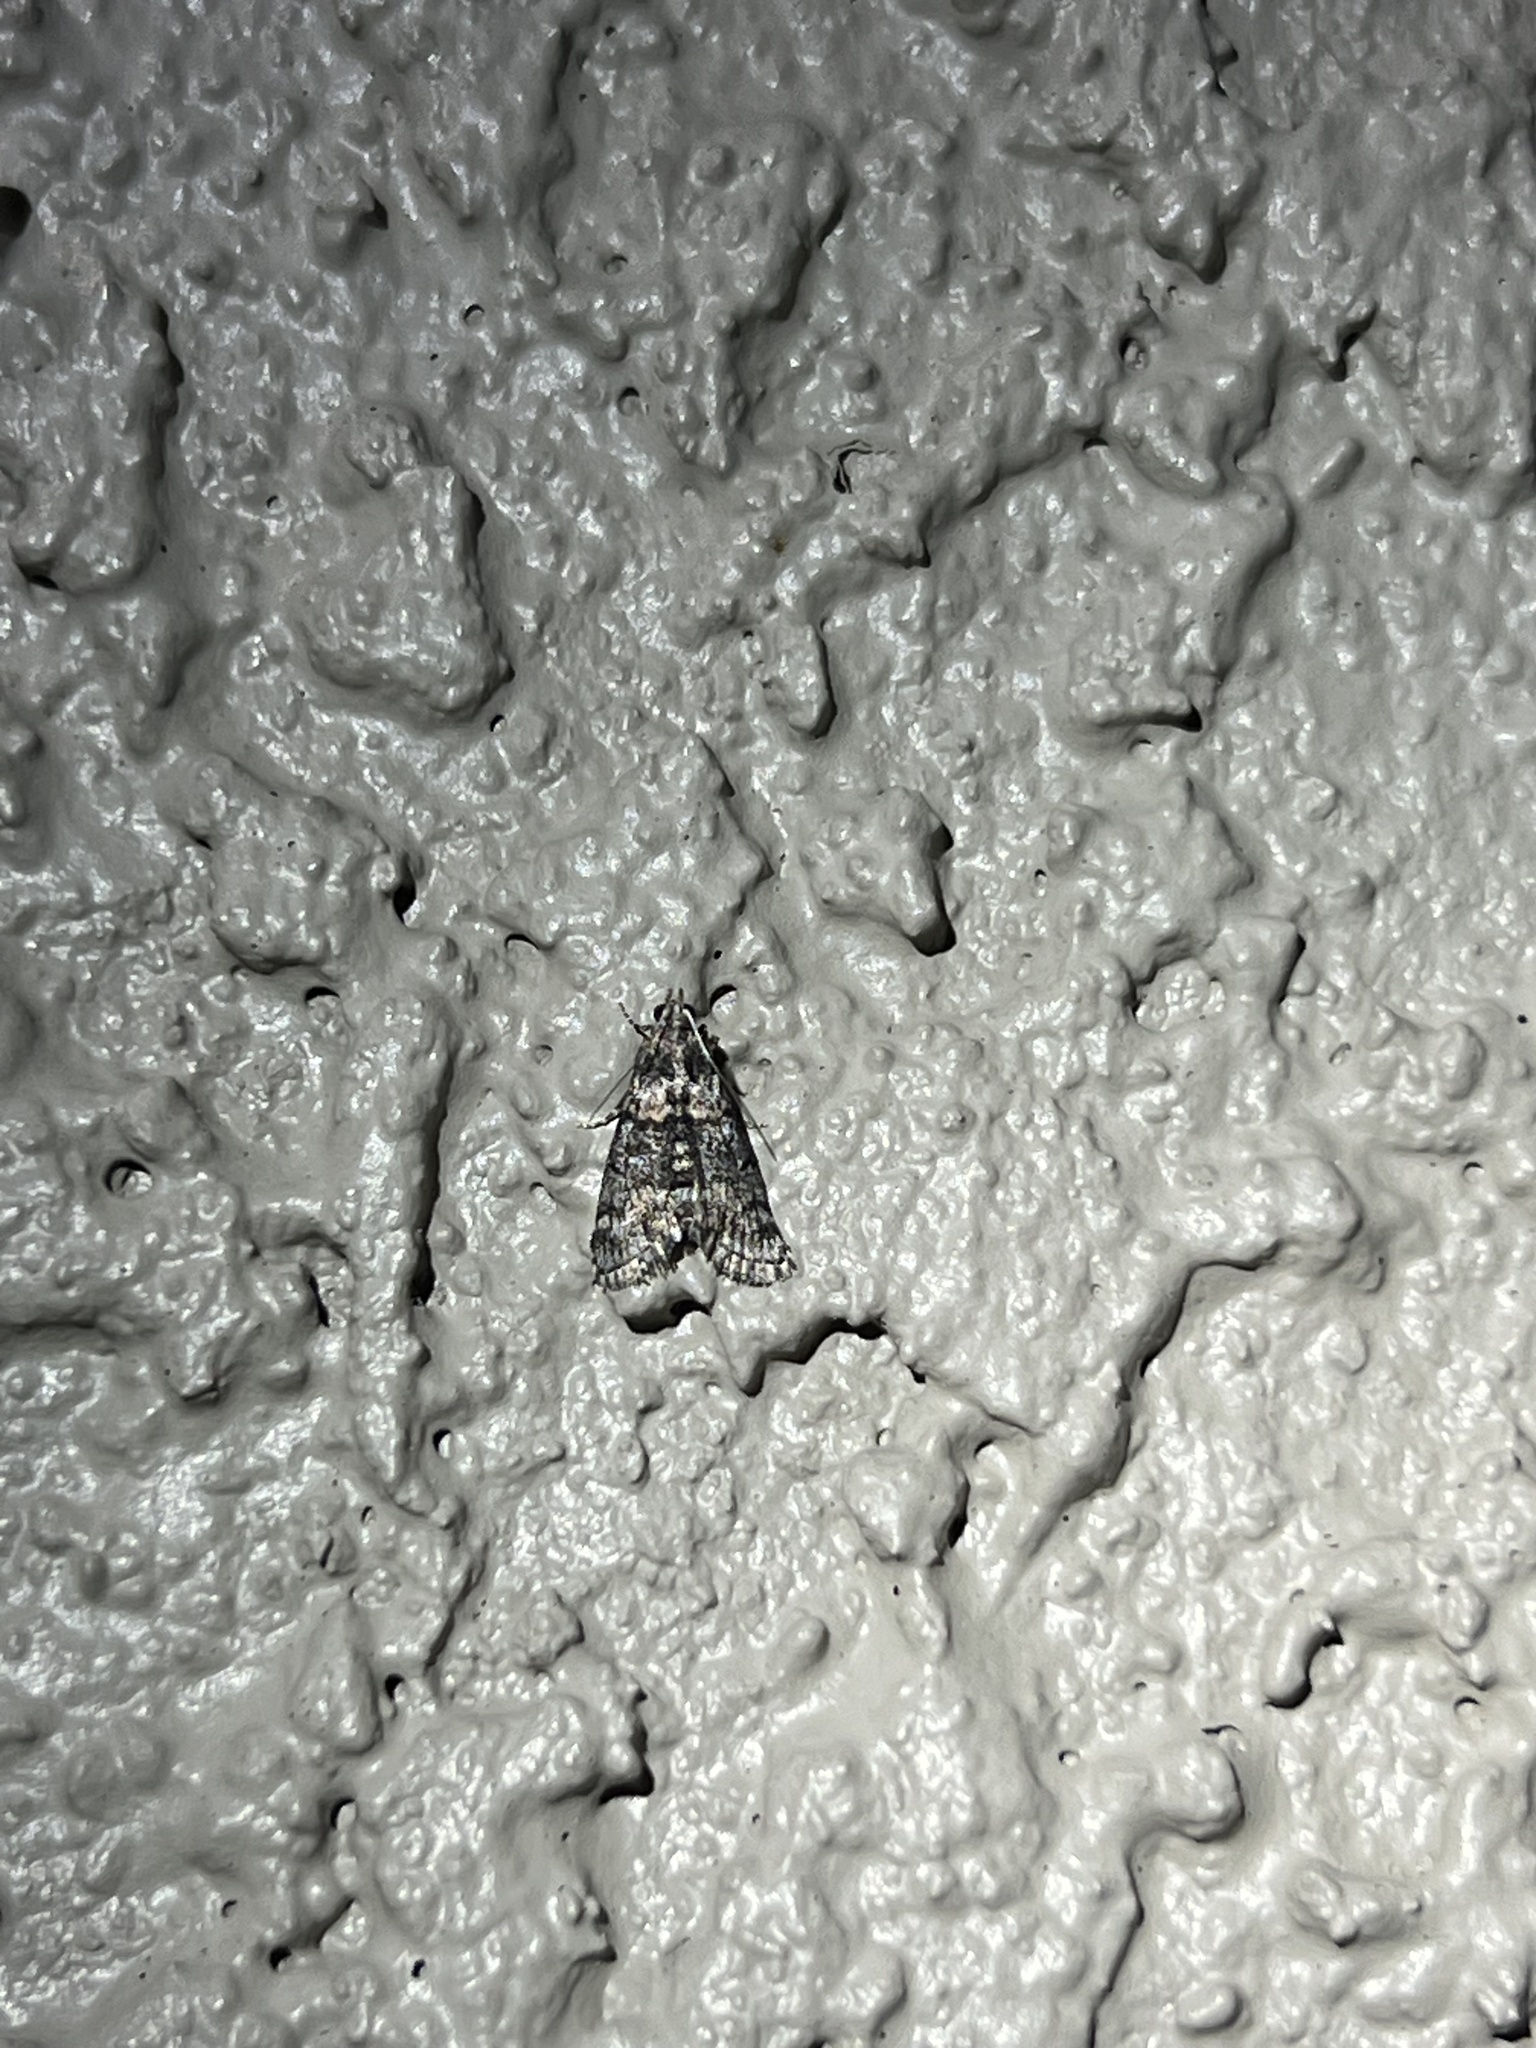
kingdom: Animalia
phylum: Arthropoda
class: Insecta
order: Lepidoptera
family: Geometridae
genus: Archirhoe
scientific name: Archirhoe neomexicana
